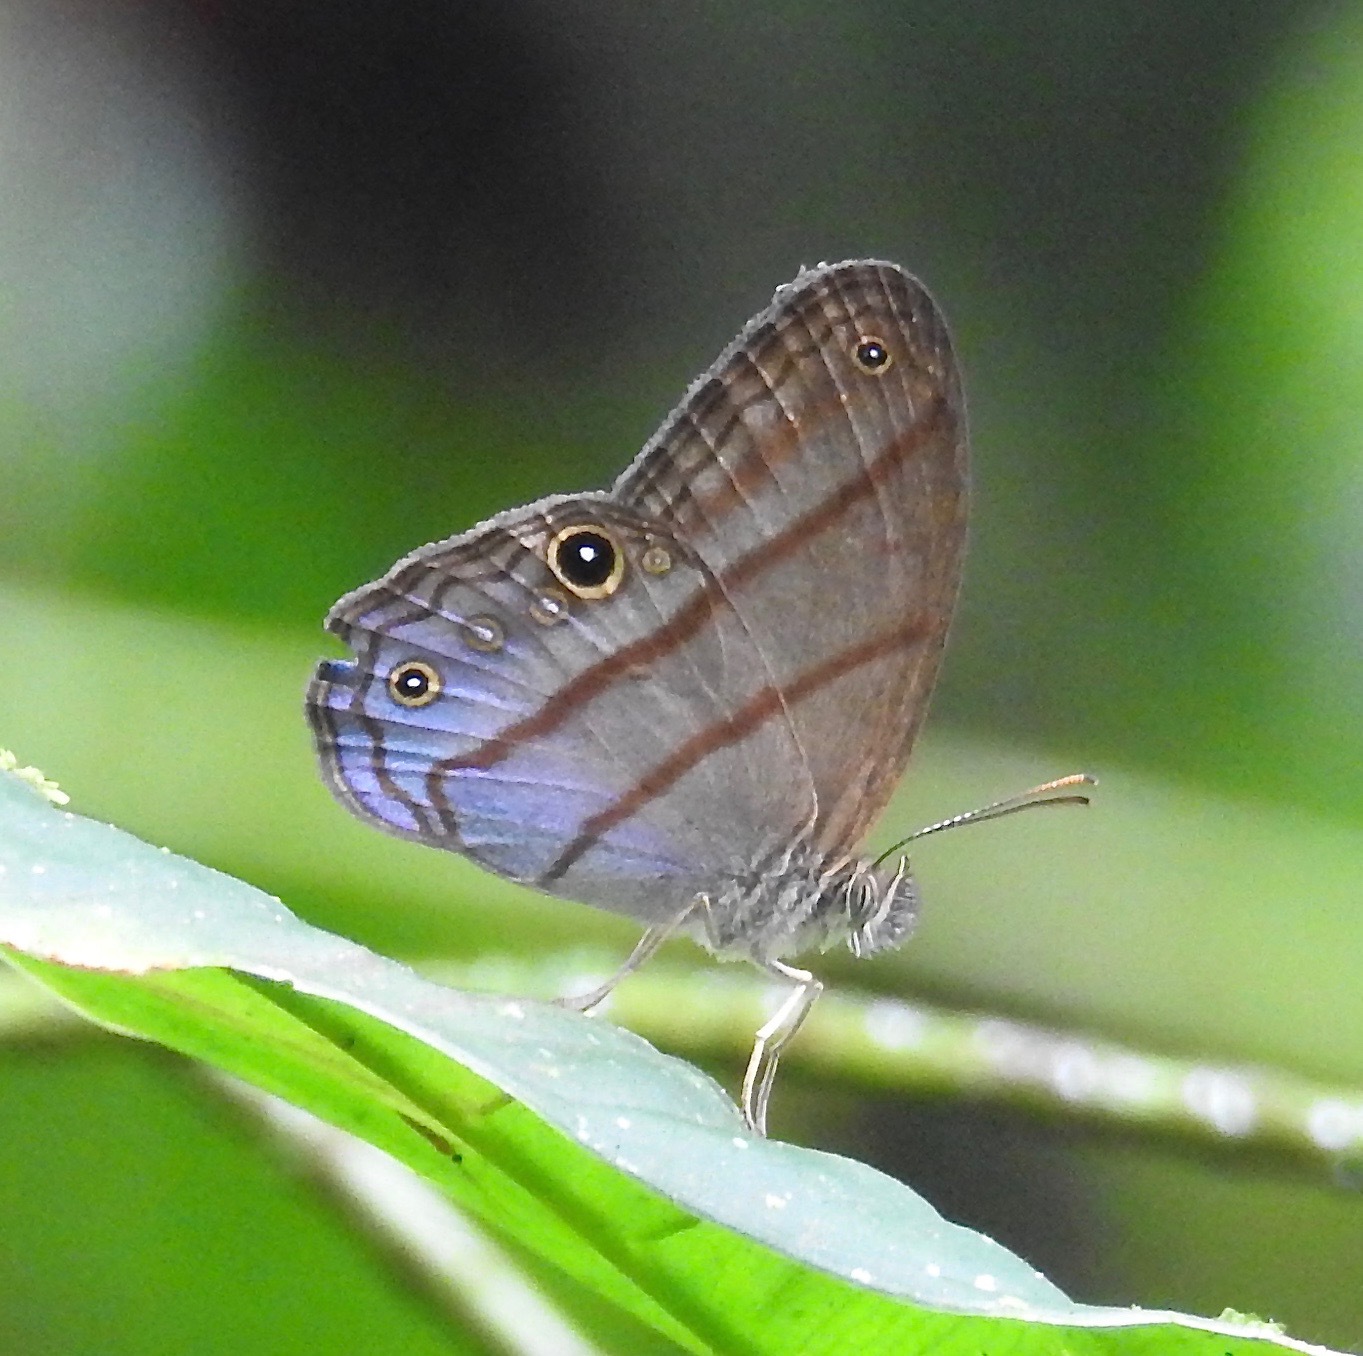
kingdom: Animalia
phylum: Arthropoda
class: Insecta
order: Lepidoptera
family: Nymphalidae
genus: Amiga
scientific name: Amiga arnaca
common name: Blue-topped satyr
